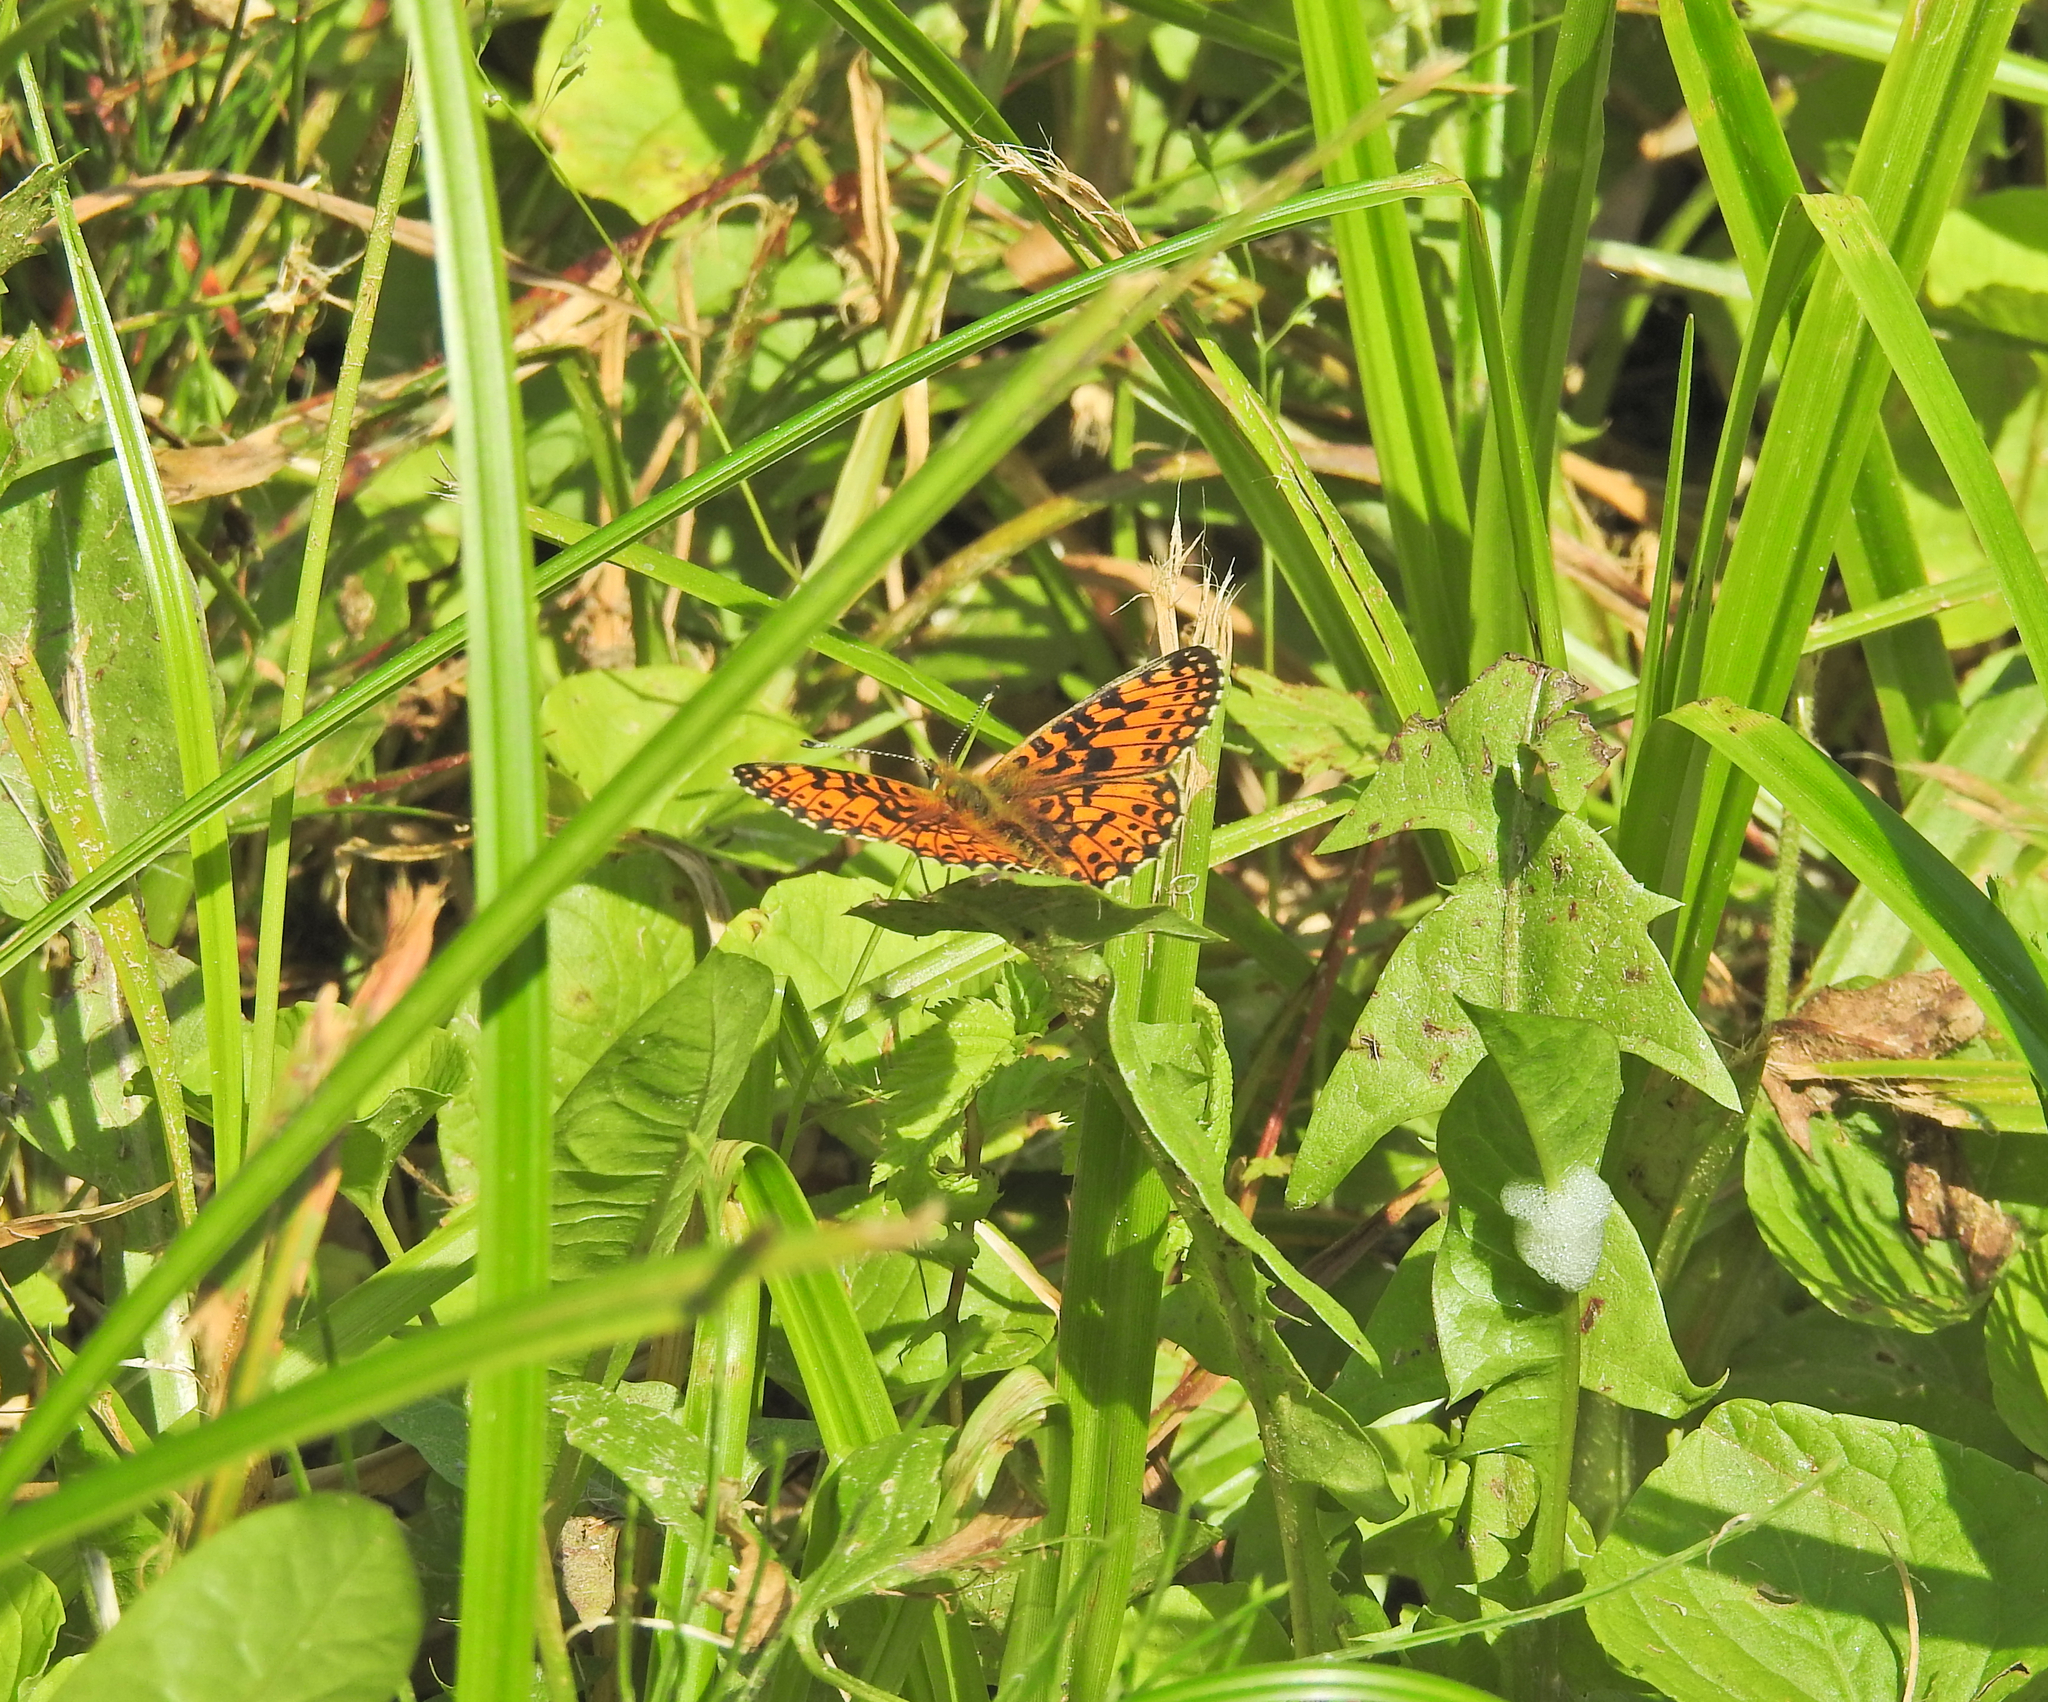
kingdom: Animalia
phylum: Arthropoda
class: Insecta
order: Lepidoptera
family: Nymphalidae
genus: Boloria
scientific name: Boloria selene
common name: Small pearl-bordered fritillary
